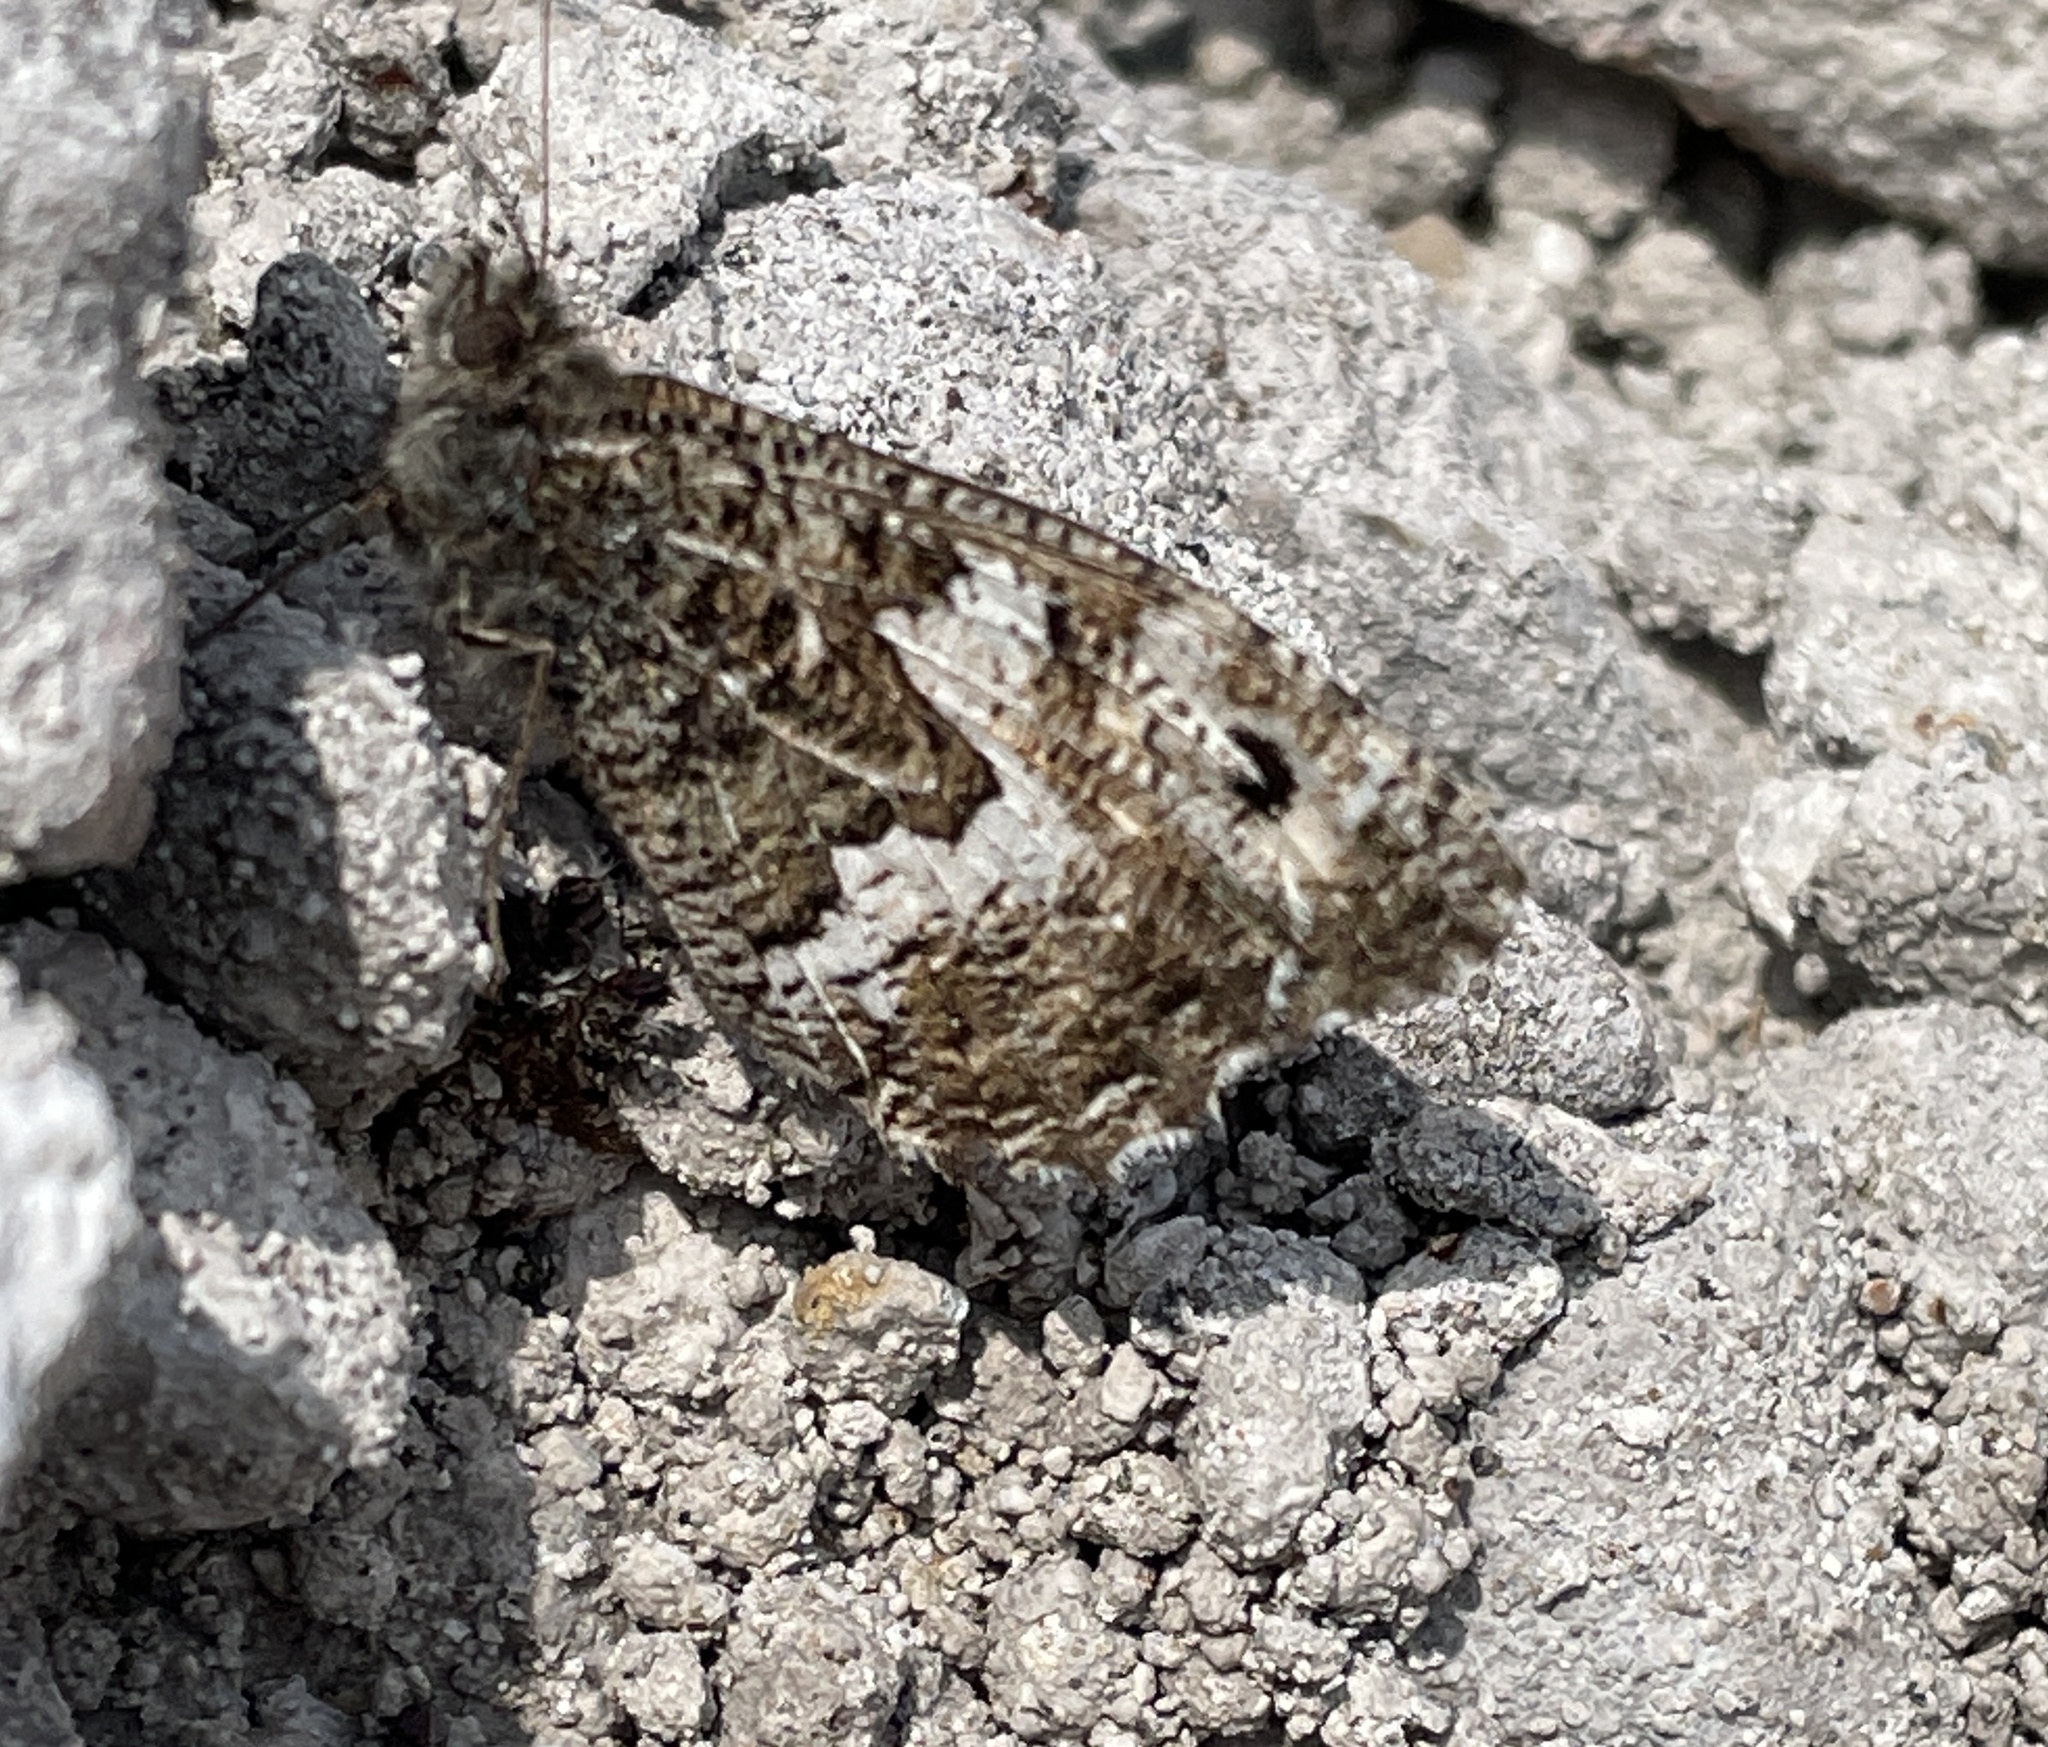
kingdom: Animalia
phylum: Arthropoda
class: Insecta
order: Lepidoptera
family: Nymphalidae
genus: Hipparchia
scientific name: Hipparchia semele
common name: Grayling
